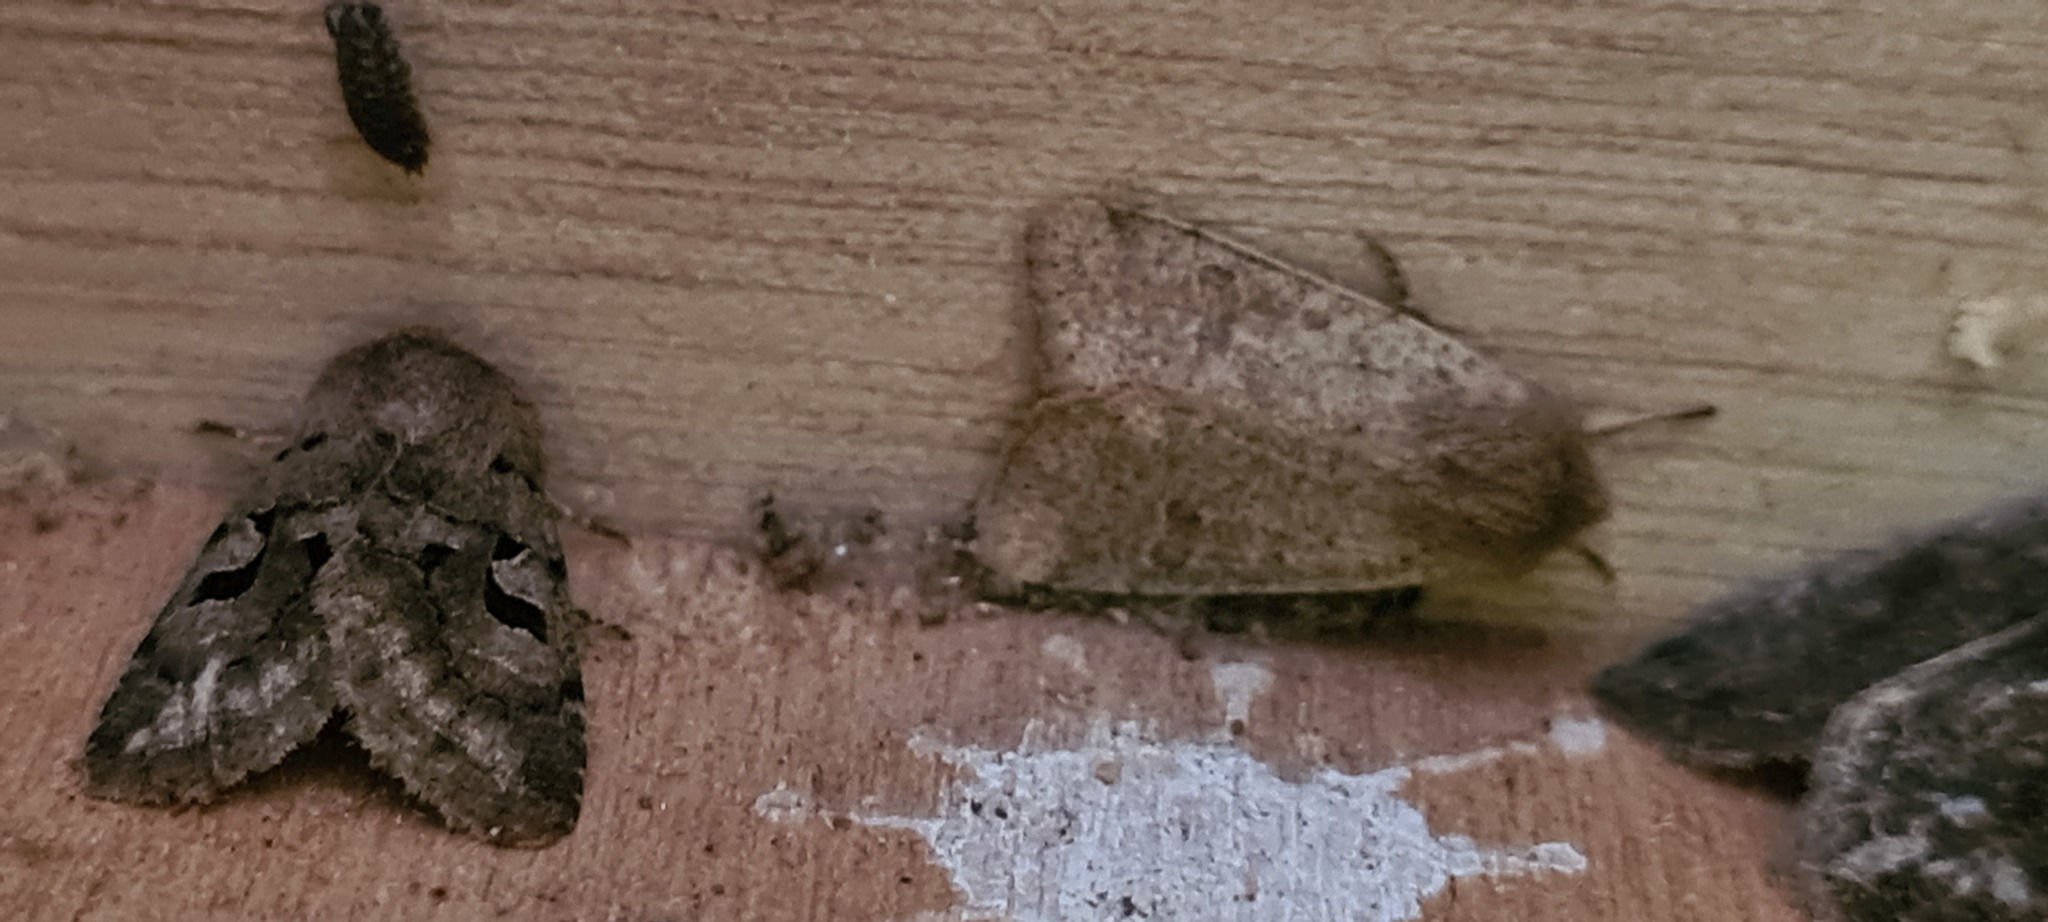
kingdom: Animalia
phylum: Arthropoda
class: Insecta
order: Lepidoptera
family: Noctuidae
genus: Orthosia
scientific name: Orthosia cruda
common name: Small quaker
